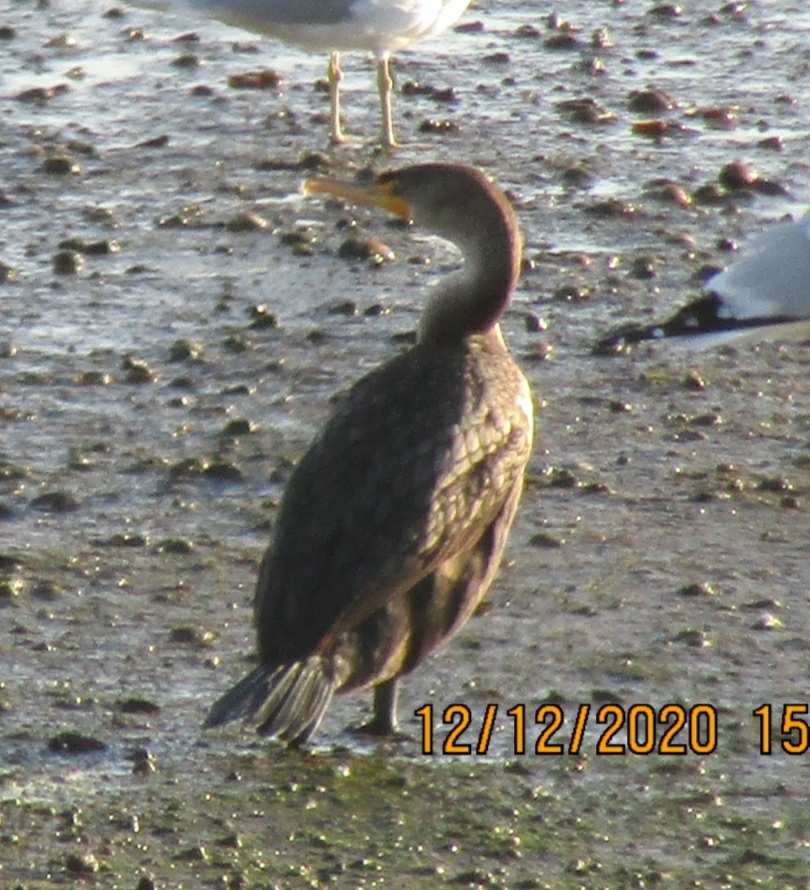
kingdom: Animalia
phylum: Chordata
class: Aves
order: Suliformes
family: Phalacrocoracidae
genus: Phalacrocorax
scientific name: Phalacrocorax auritus
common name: Double-crested cormorant
